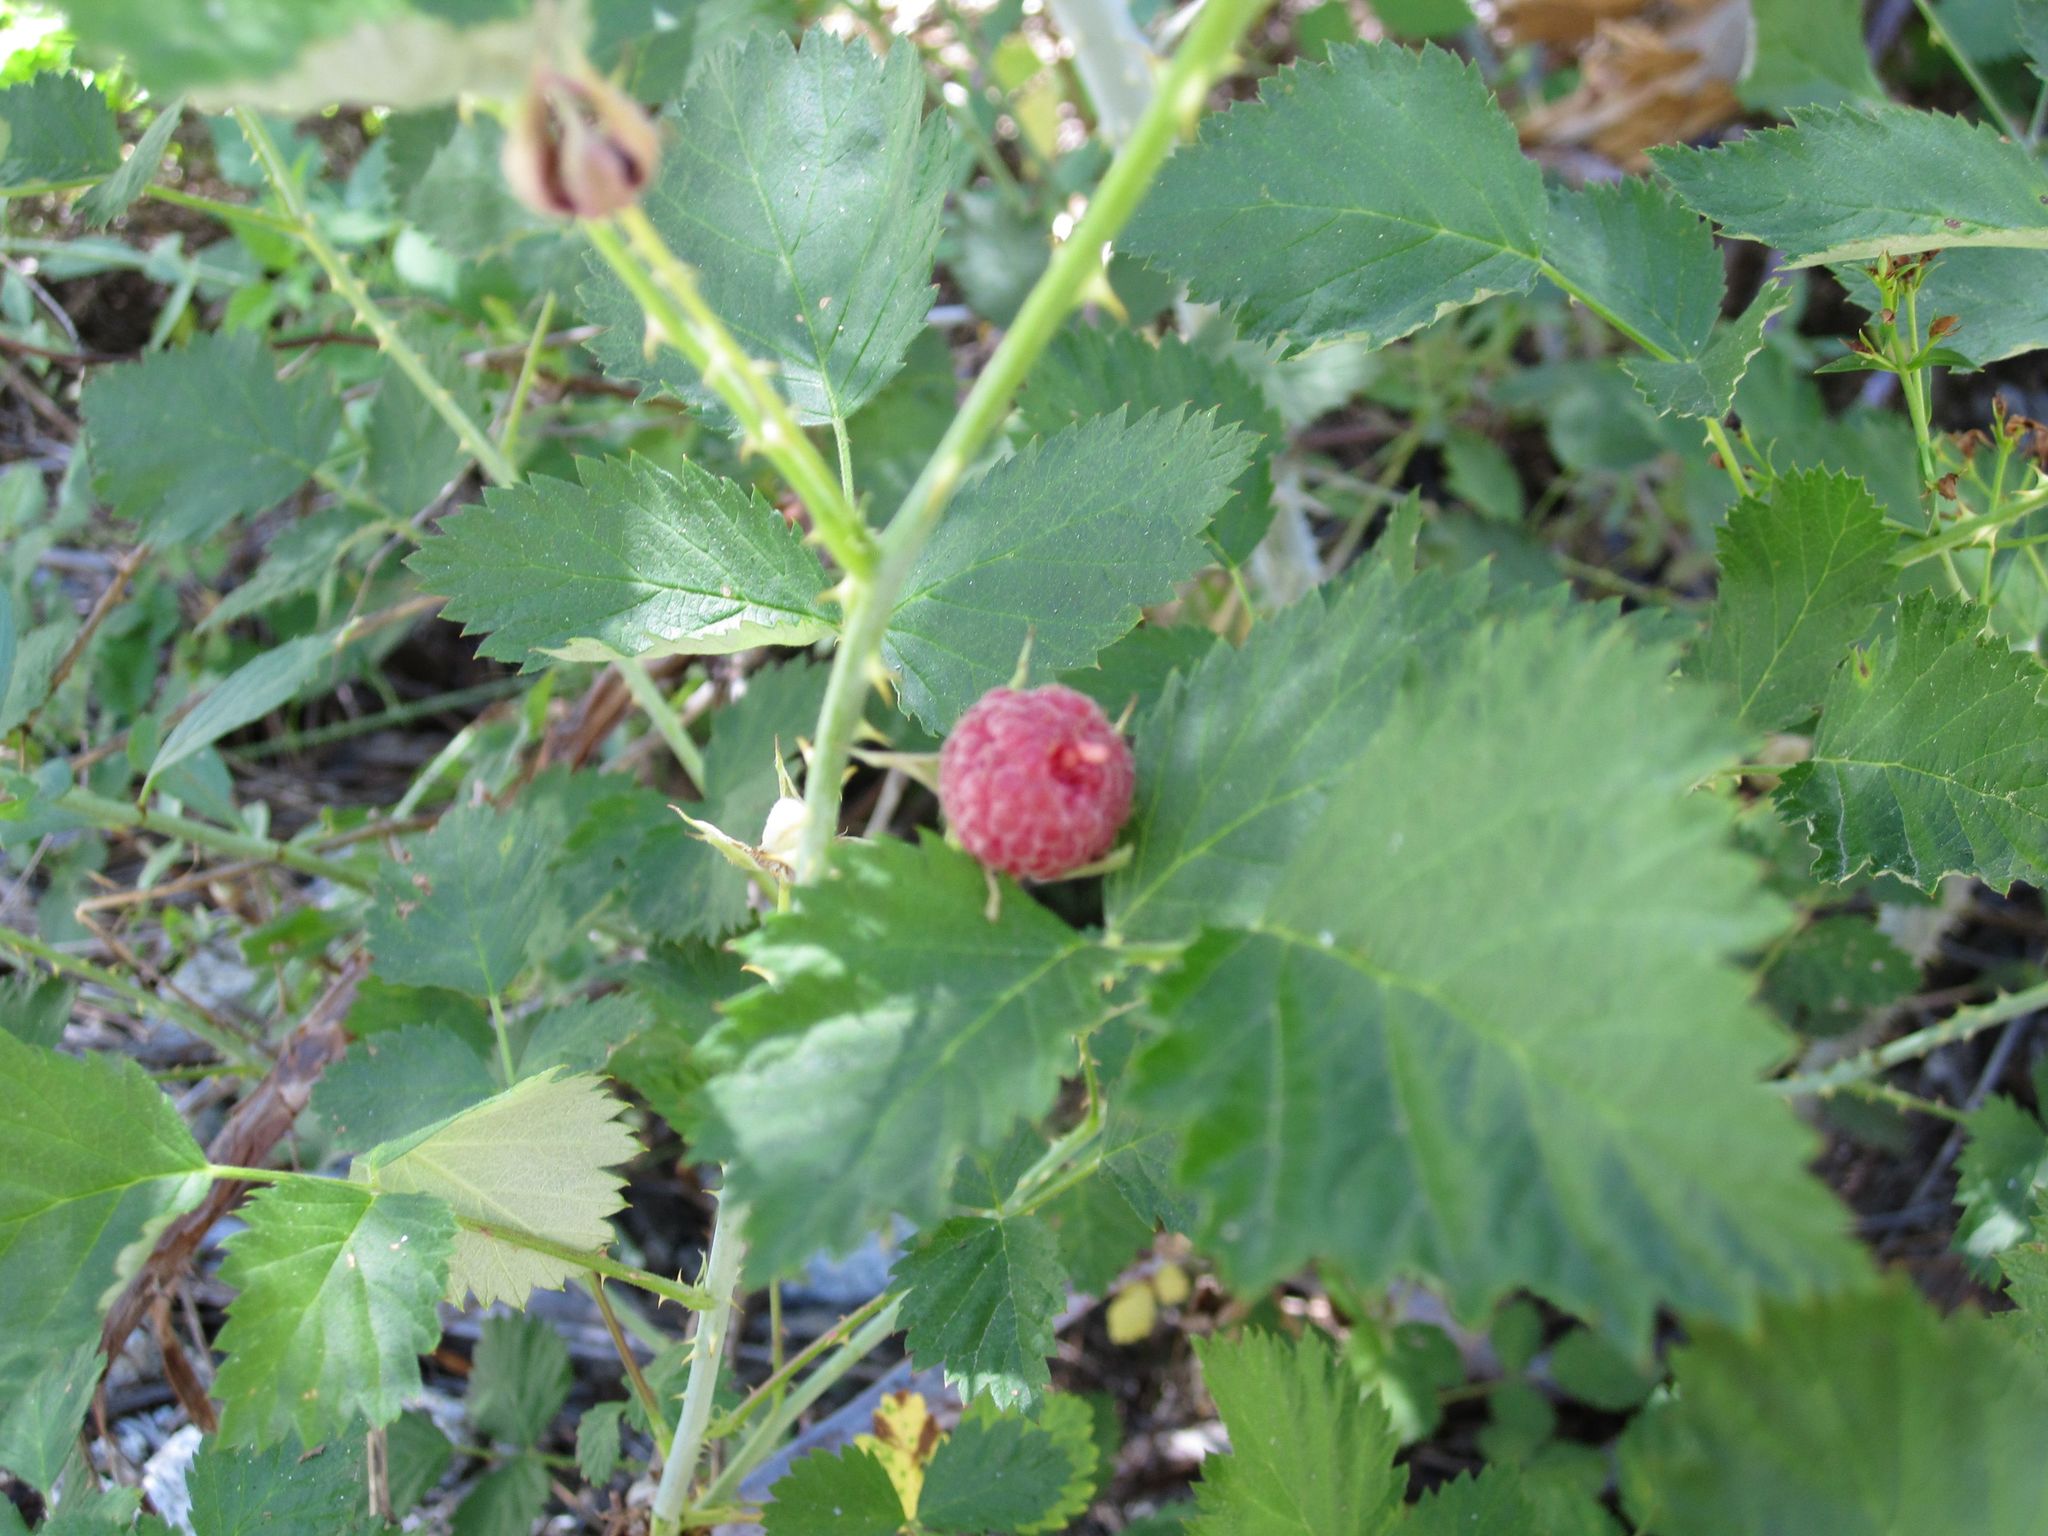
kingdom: Plantae
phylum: Tracheophyta
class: Magnoliopsida
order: Rosales
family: Rosaceae
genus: Rubus
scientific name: Rubus leucodermis
